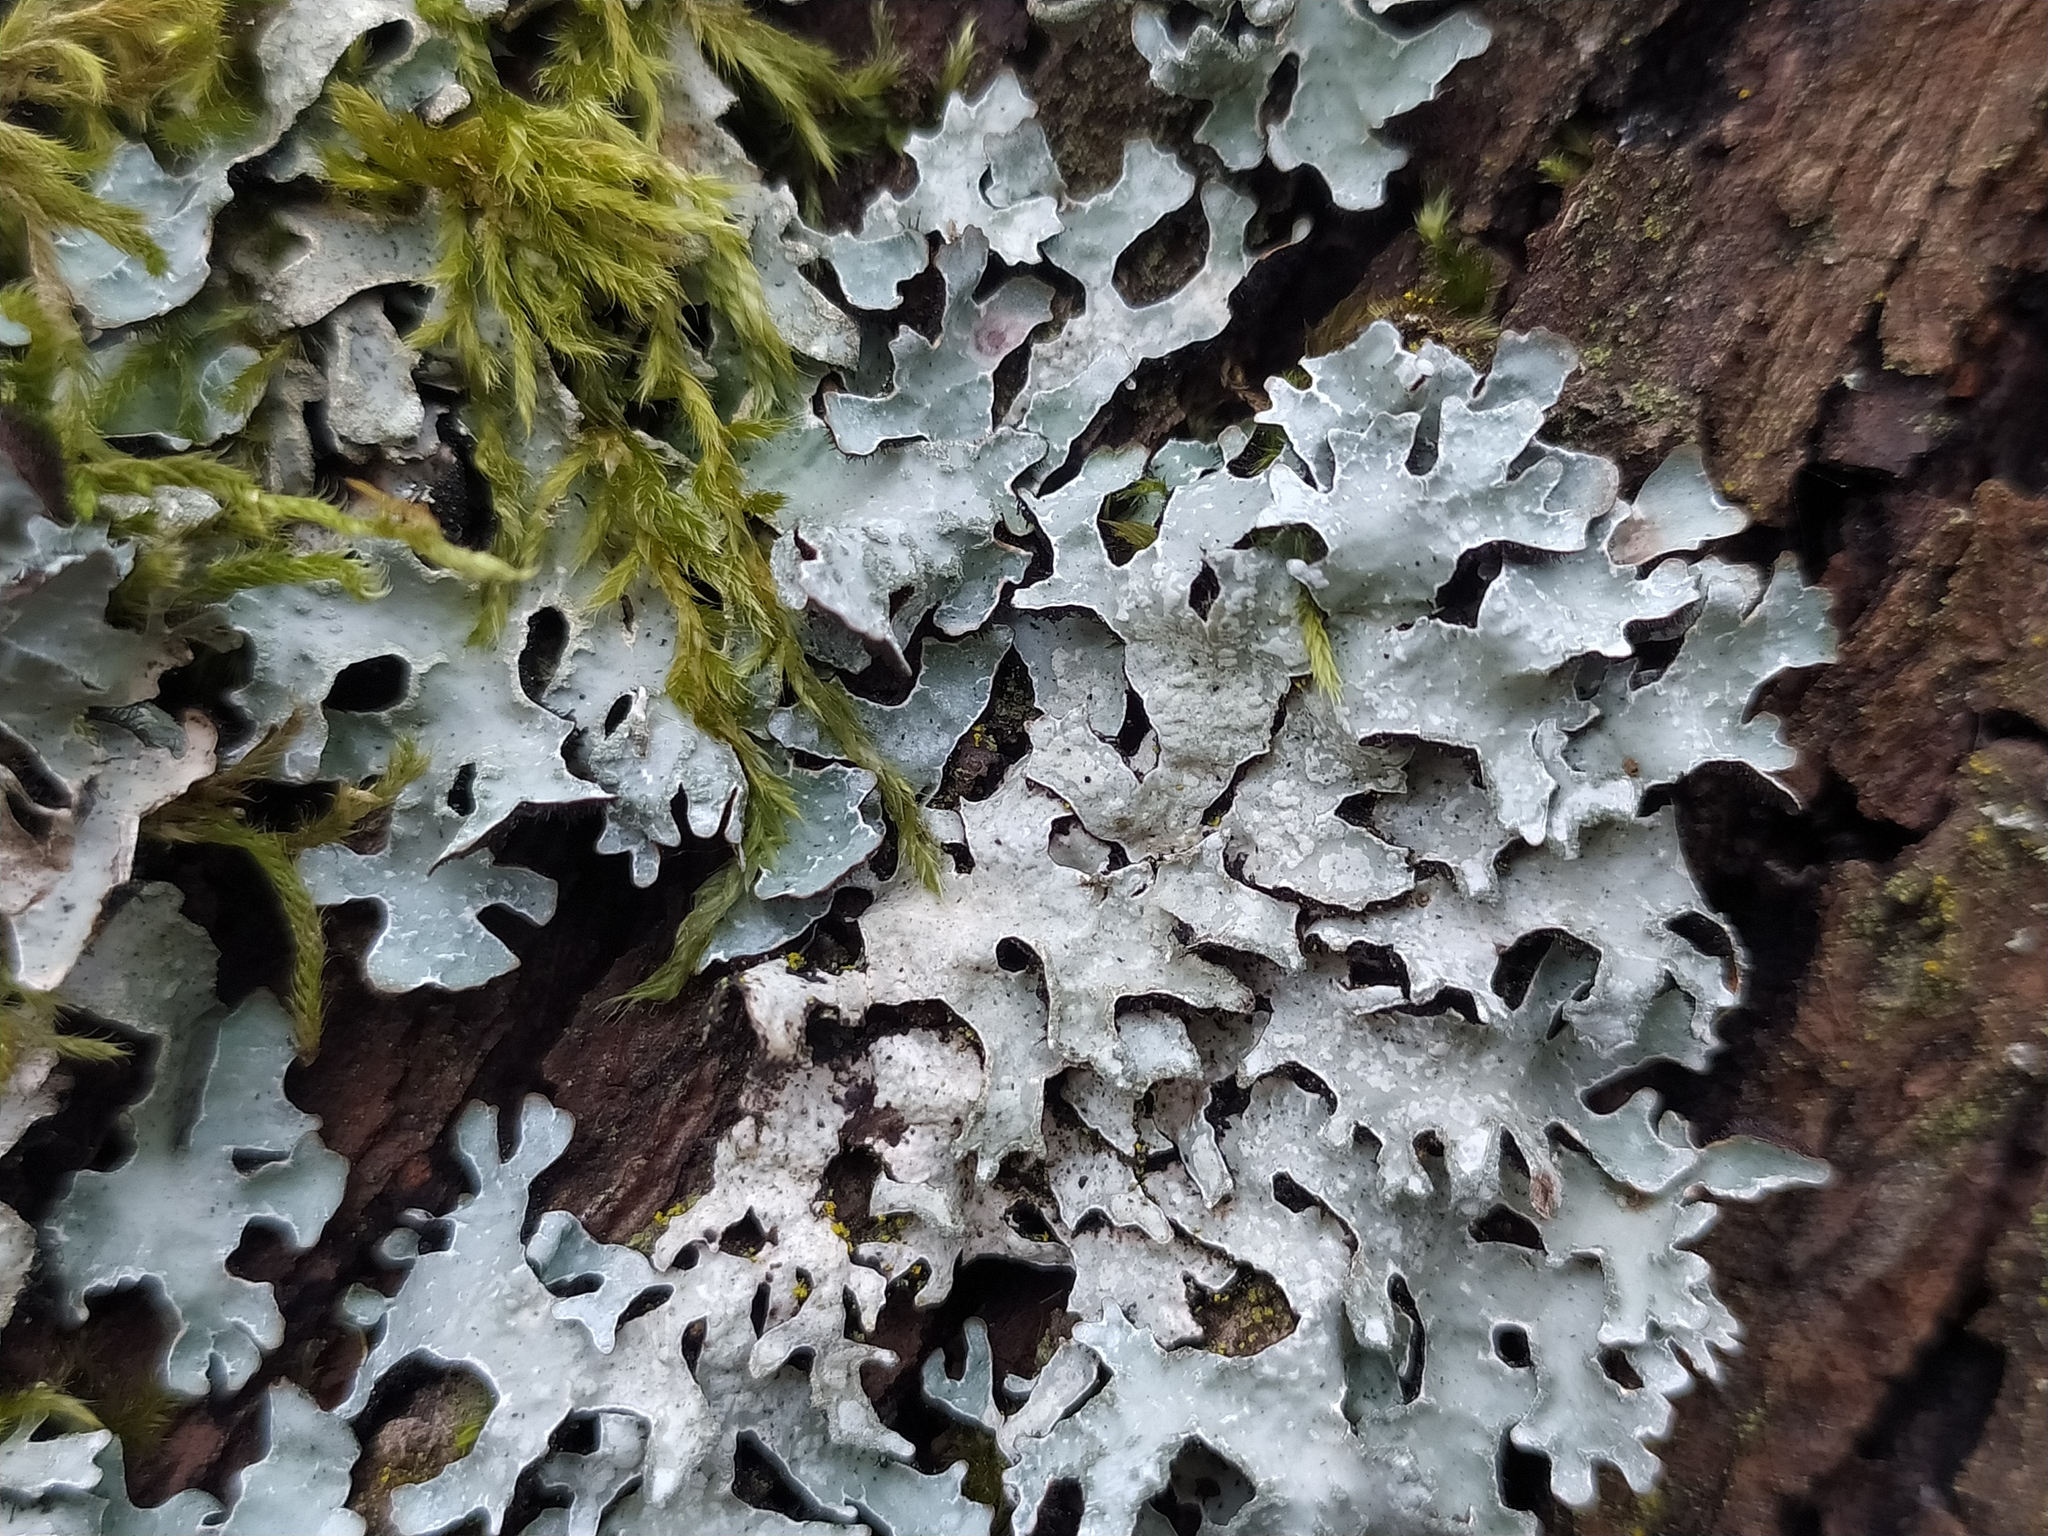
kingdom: Fungi
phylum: Ascomycota
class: Lecanoromycetes
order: Lecanorales
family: Parmeliaceae
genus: Parmelia
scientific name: Parmelia sulcata
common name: Netted shield lichen
